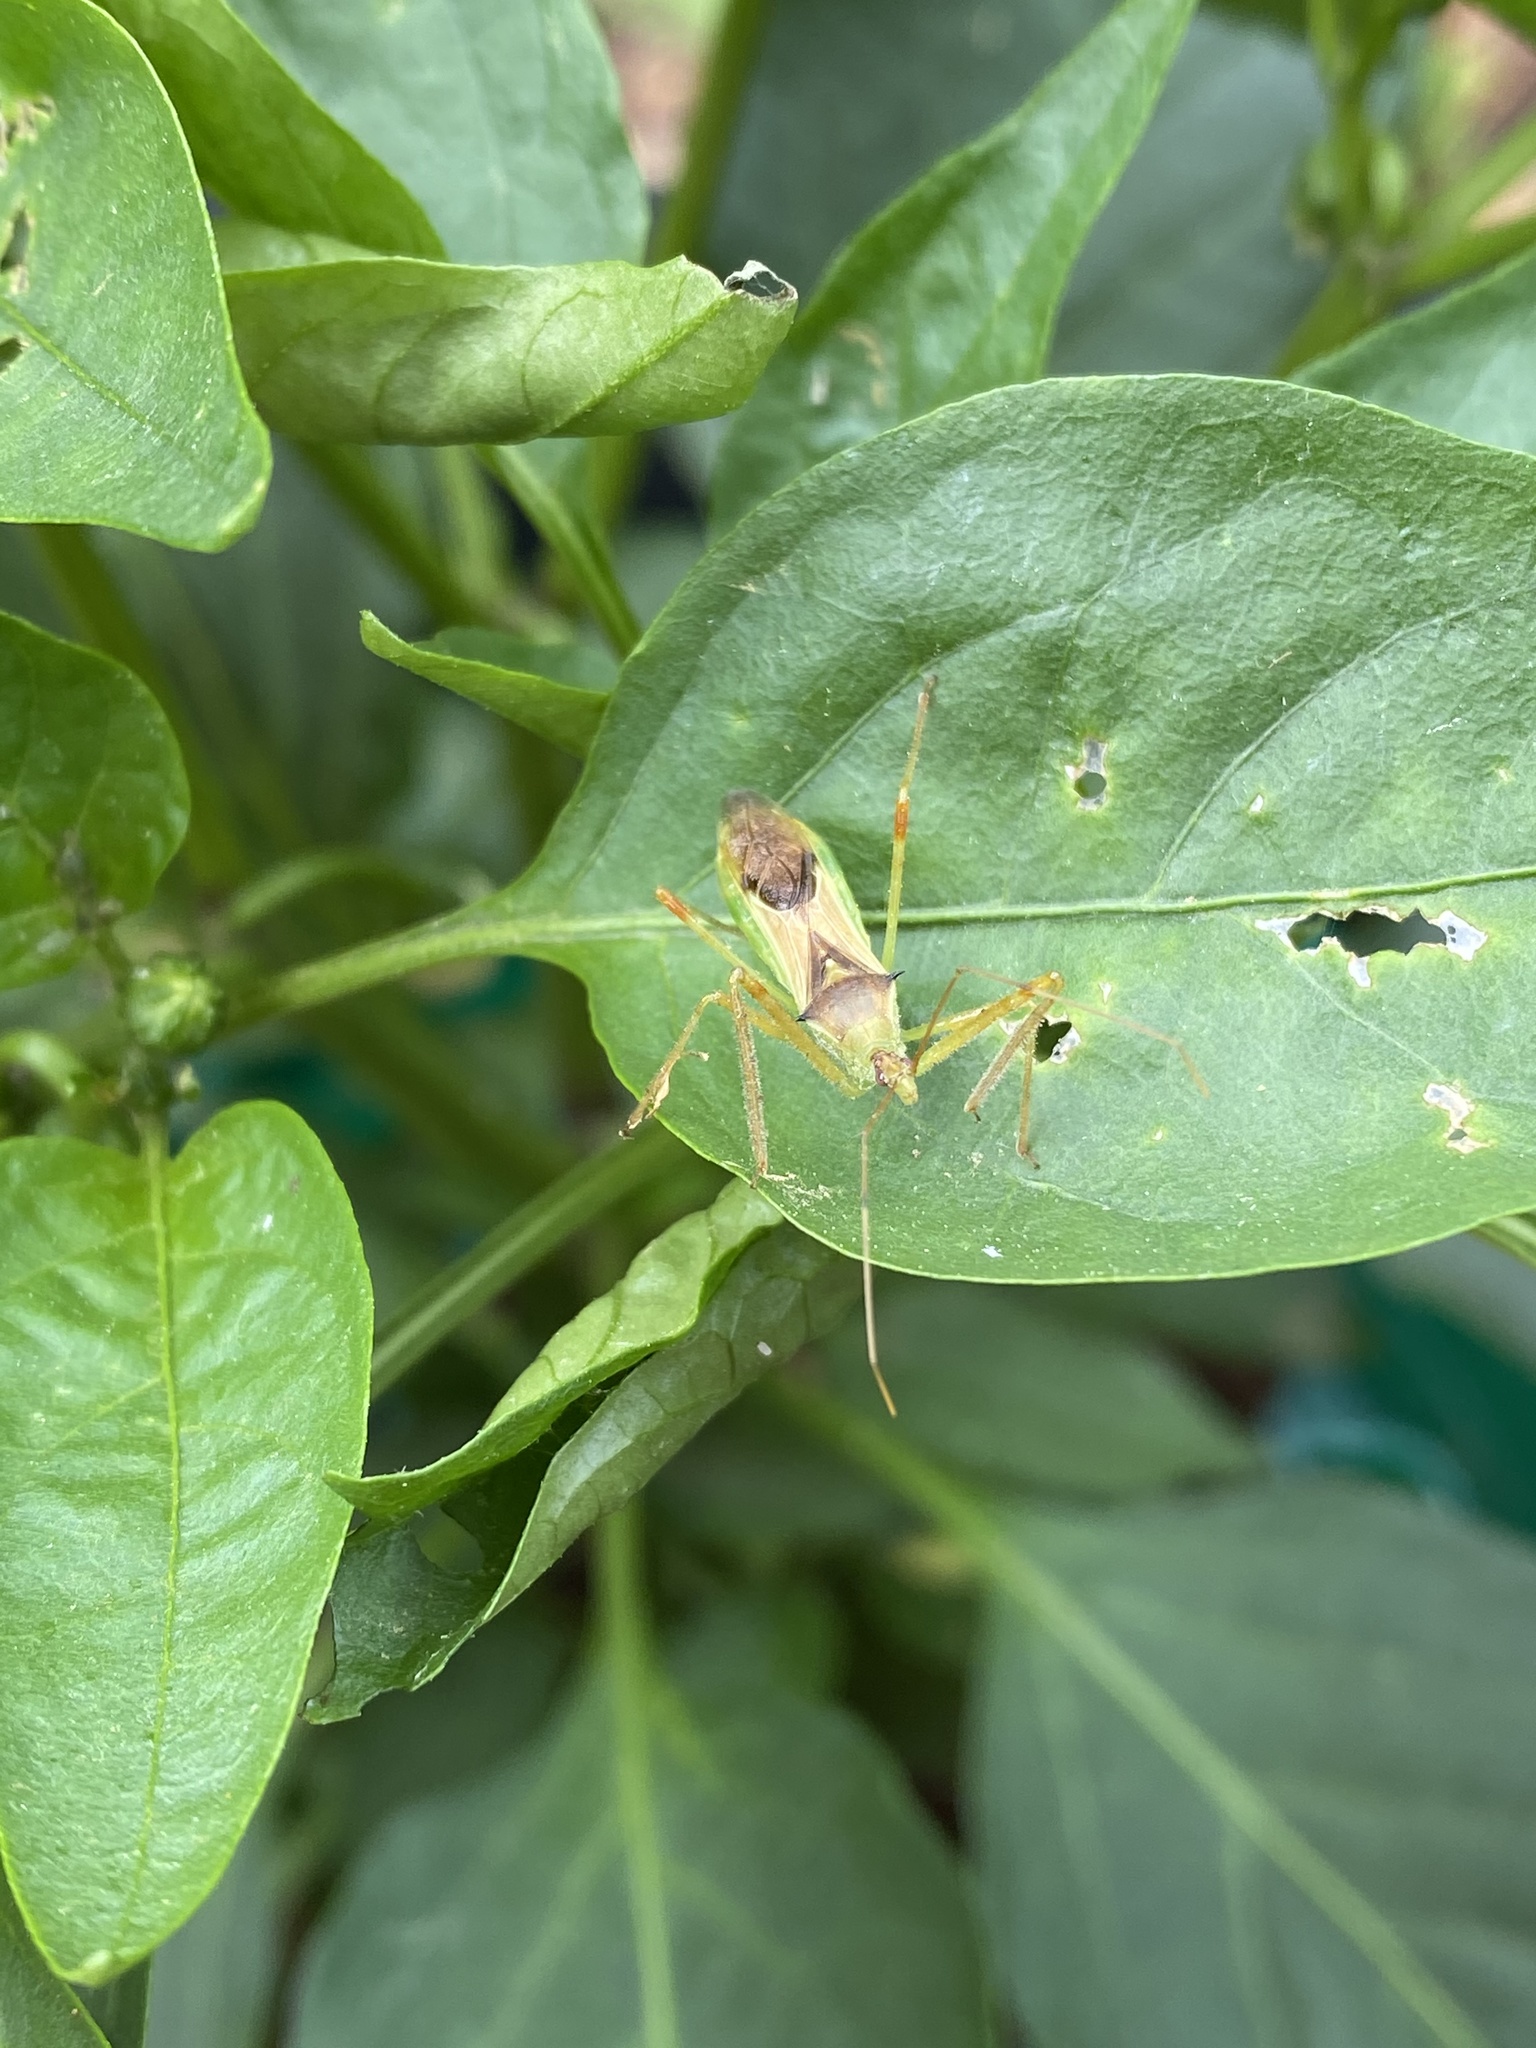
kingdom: Animalia
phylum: Arthropoda
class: Insecta
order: Hemiptera
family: Reduviidae
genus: Zelus
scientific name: Zelus luridus
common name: Pale green assassin bug
